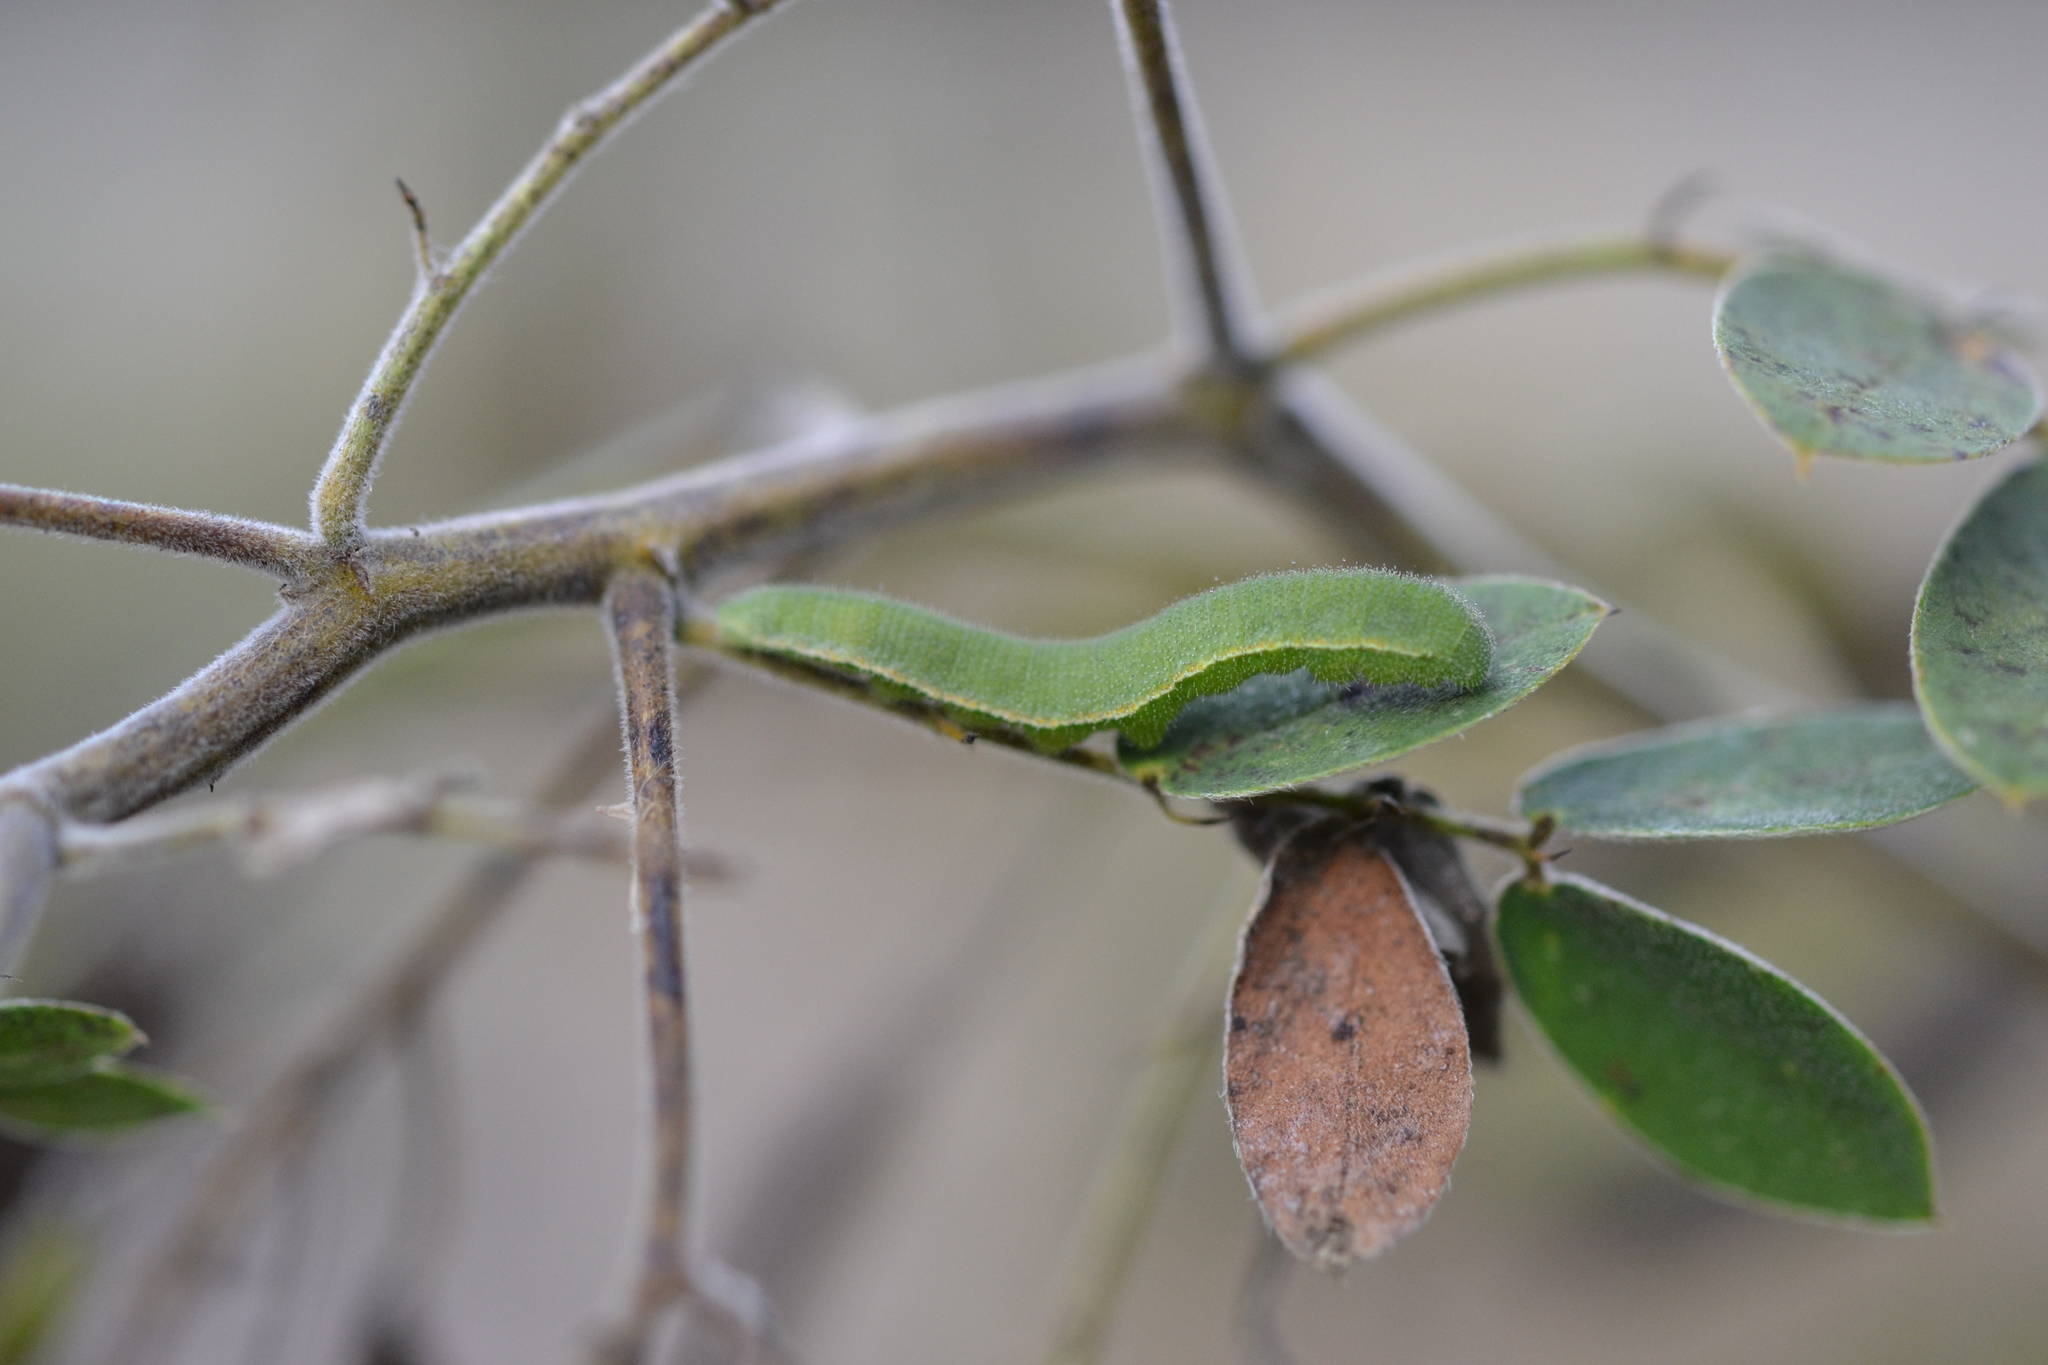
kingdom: Animalia
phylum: Arthropoda
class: Insecta
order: Lepidoptera
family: Pieridae
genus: Abaeis
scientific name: Abaeis nicippe
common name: Sleepy orange
